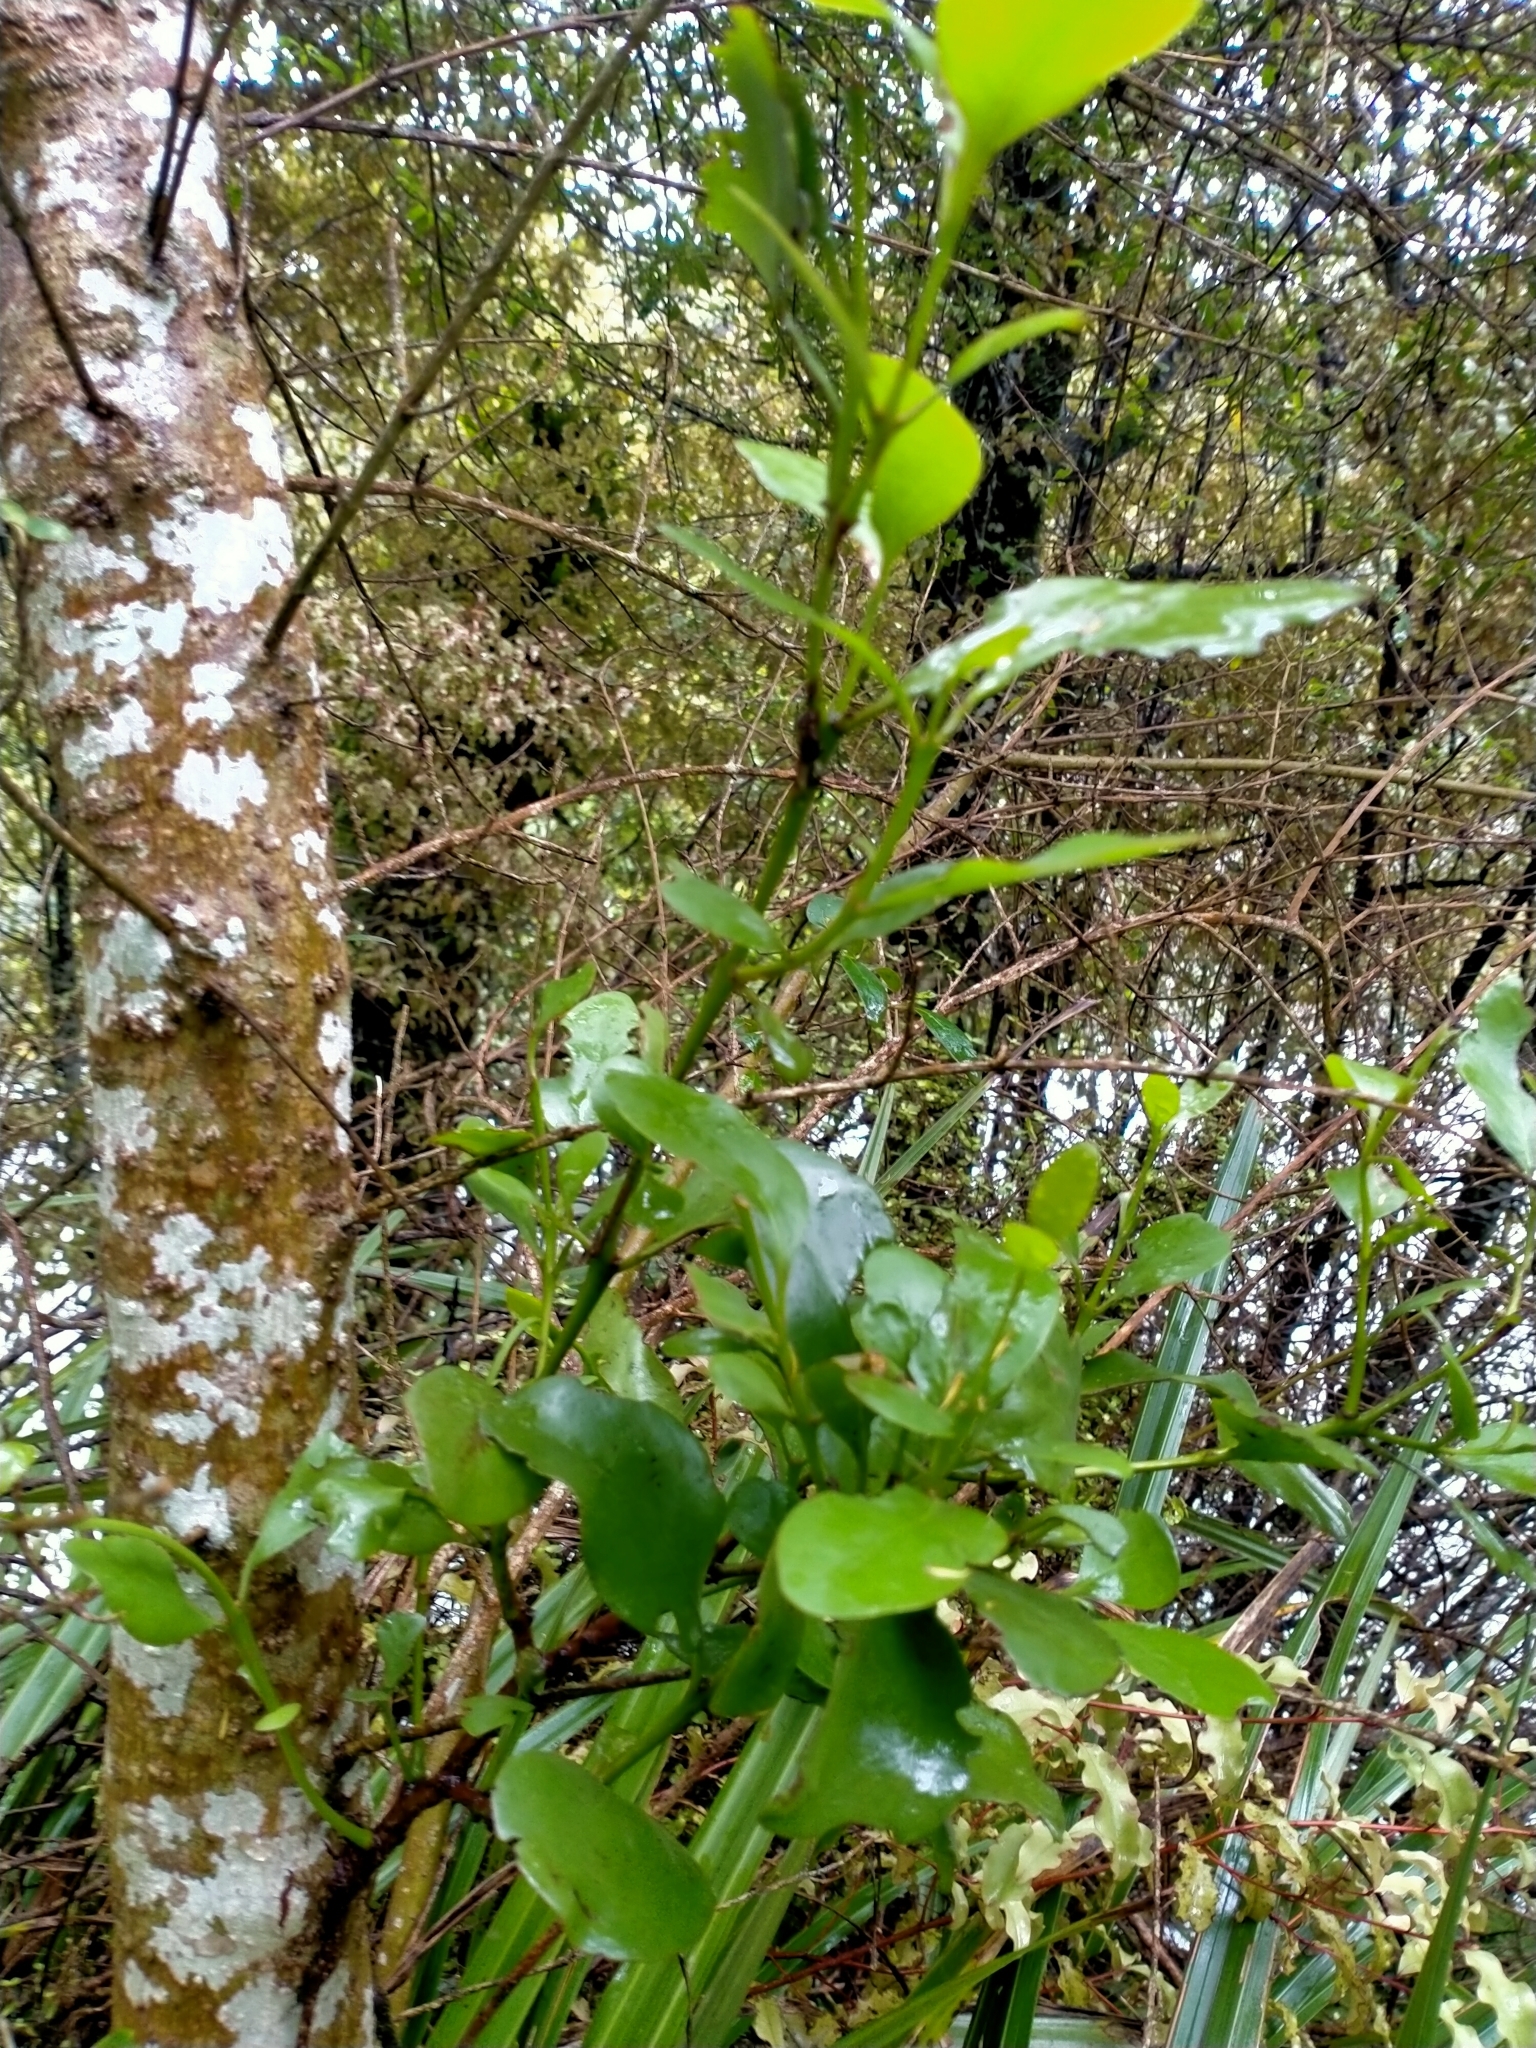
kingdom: Plantae
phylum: Tracheophyta
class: Magnoliopsida
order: Santalales
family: Loranthaceae
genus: Ileostylus
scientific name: Ileostylus micranthus
